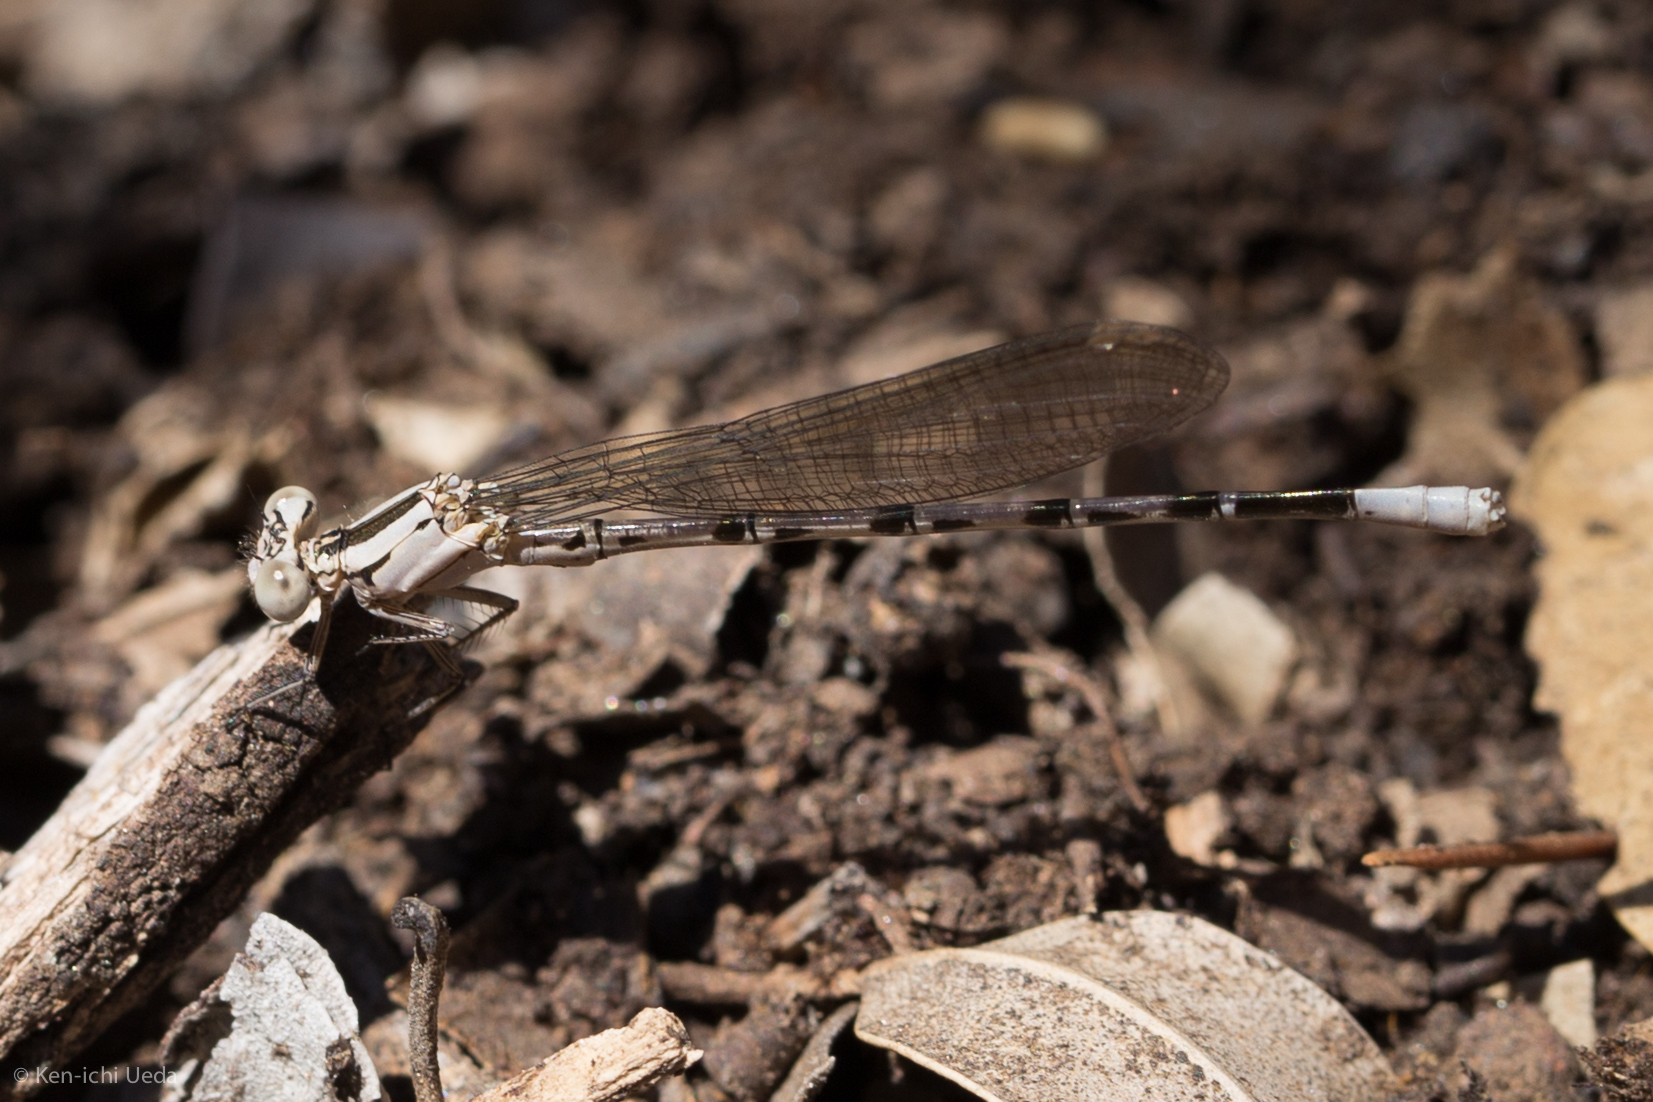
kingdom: Animalia
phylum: Arthropoda
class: Insecta
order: Odonata
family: Coenagrionidae
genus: Argia
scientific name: Argia vivida
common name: Vivid dancer
